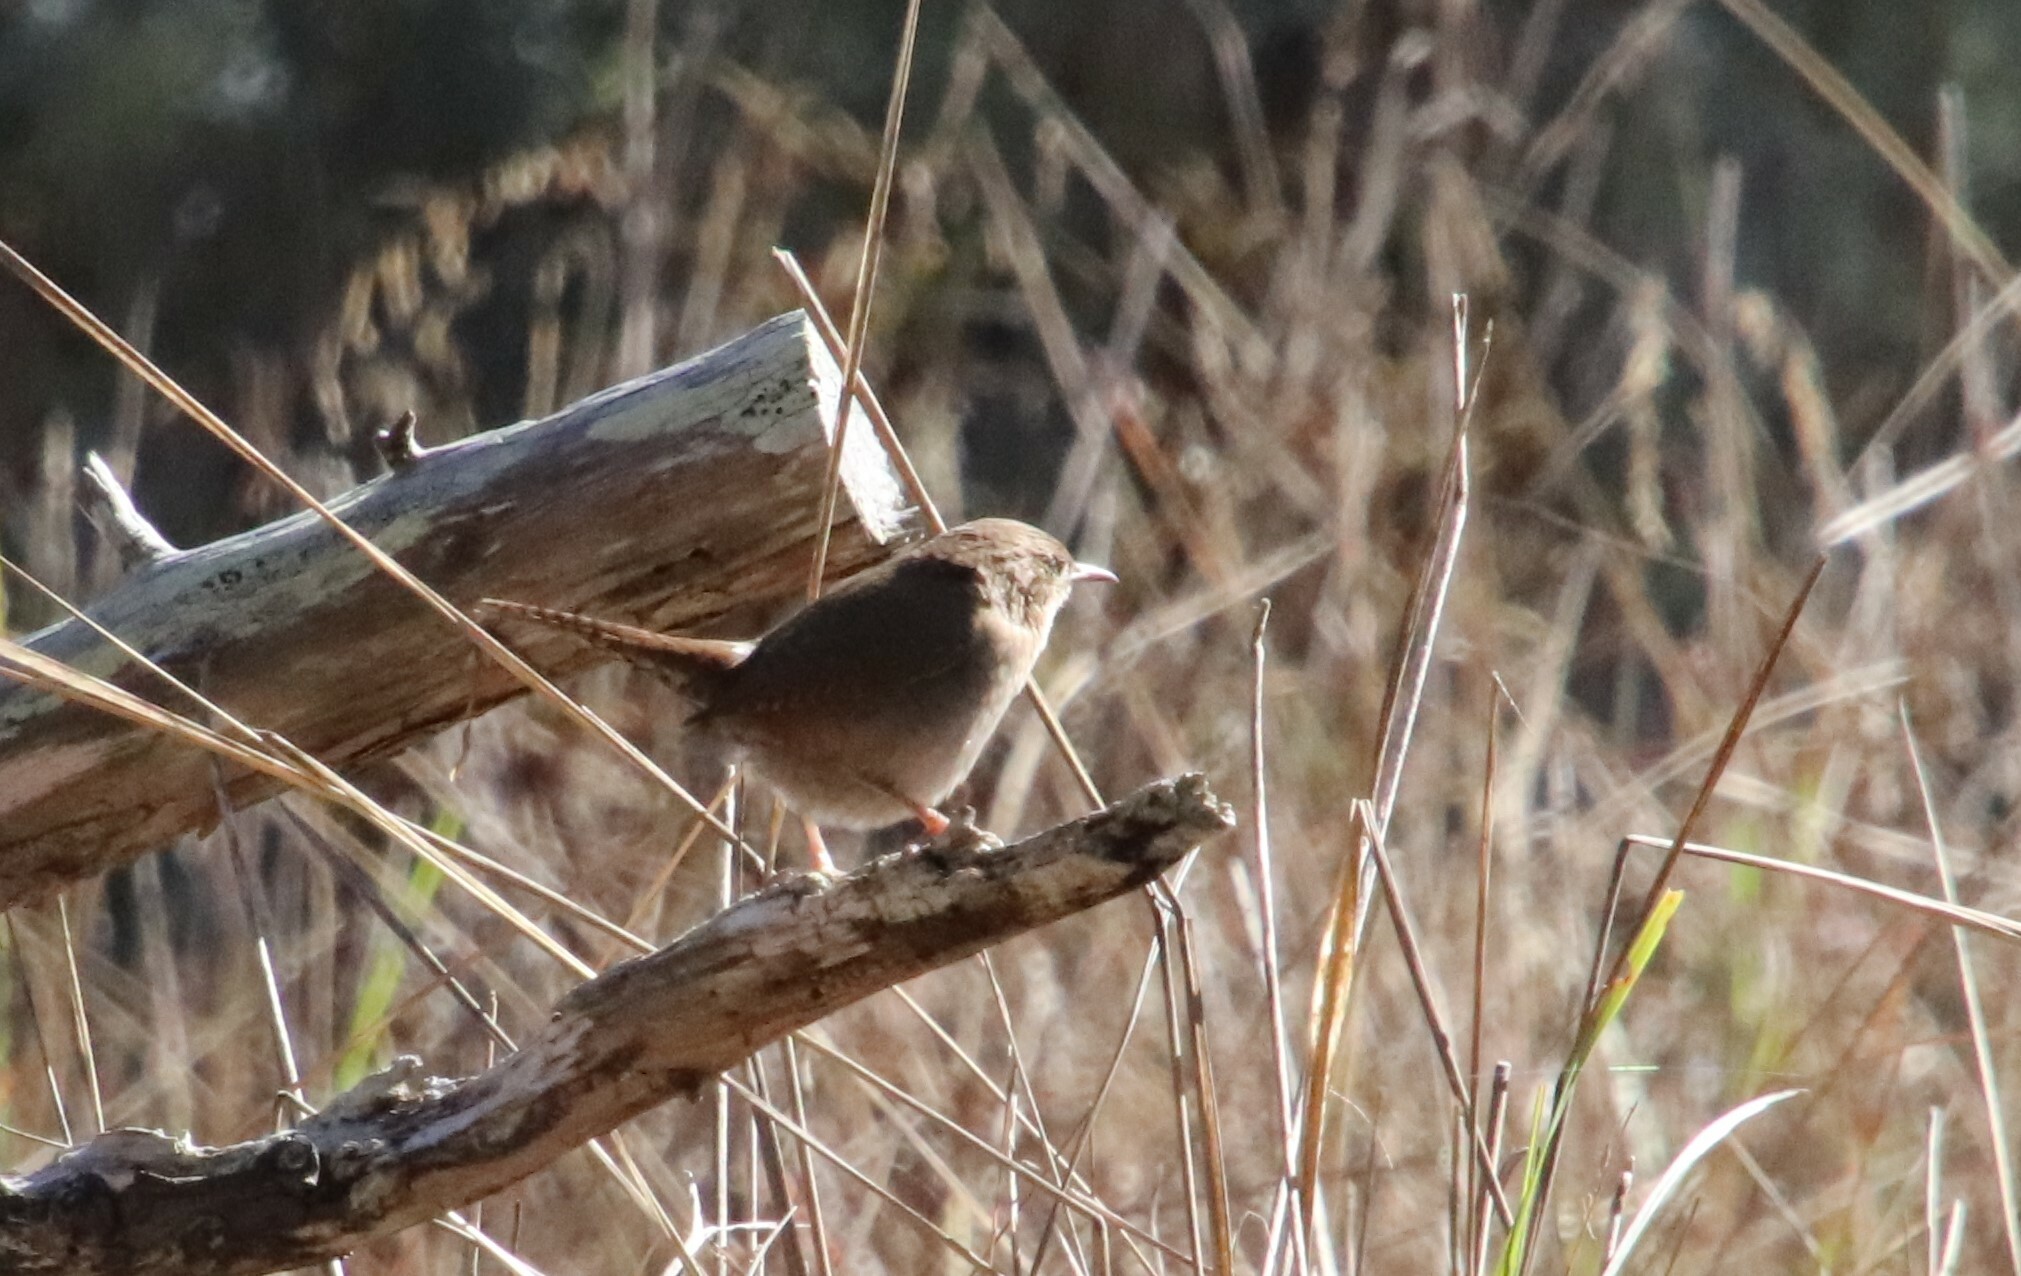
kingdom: Animalia
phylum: Chordata
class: Aves
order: Passeriformes
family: Troglodytidae
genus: Troglodytes
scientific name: Troglodytes aedon
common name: House wren
